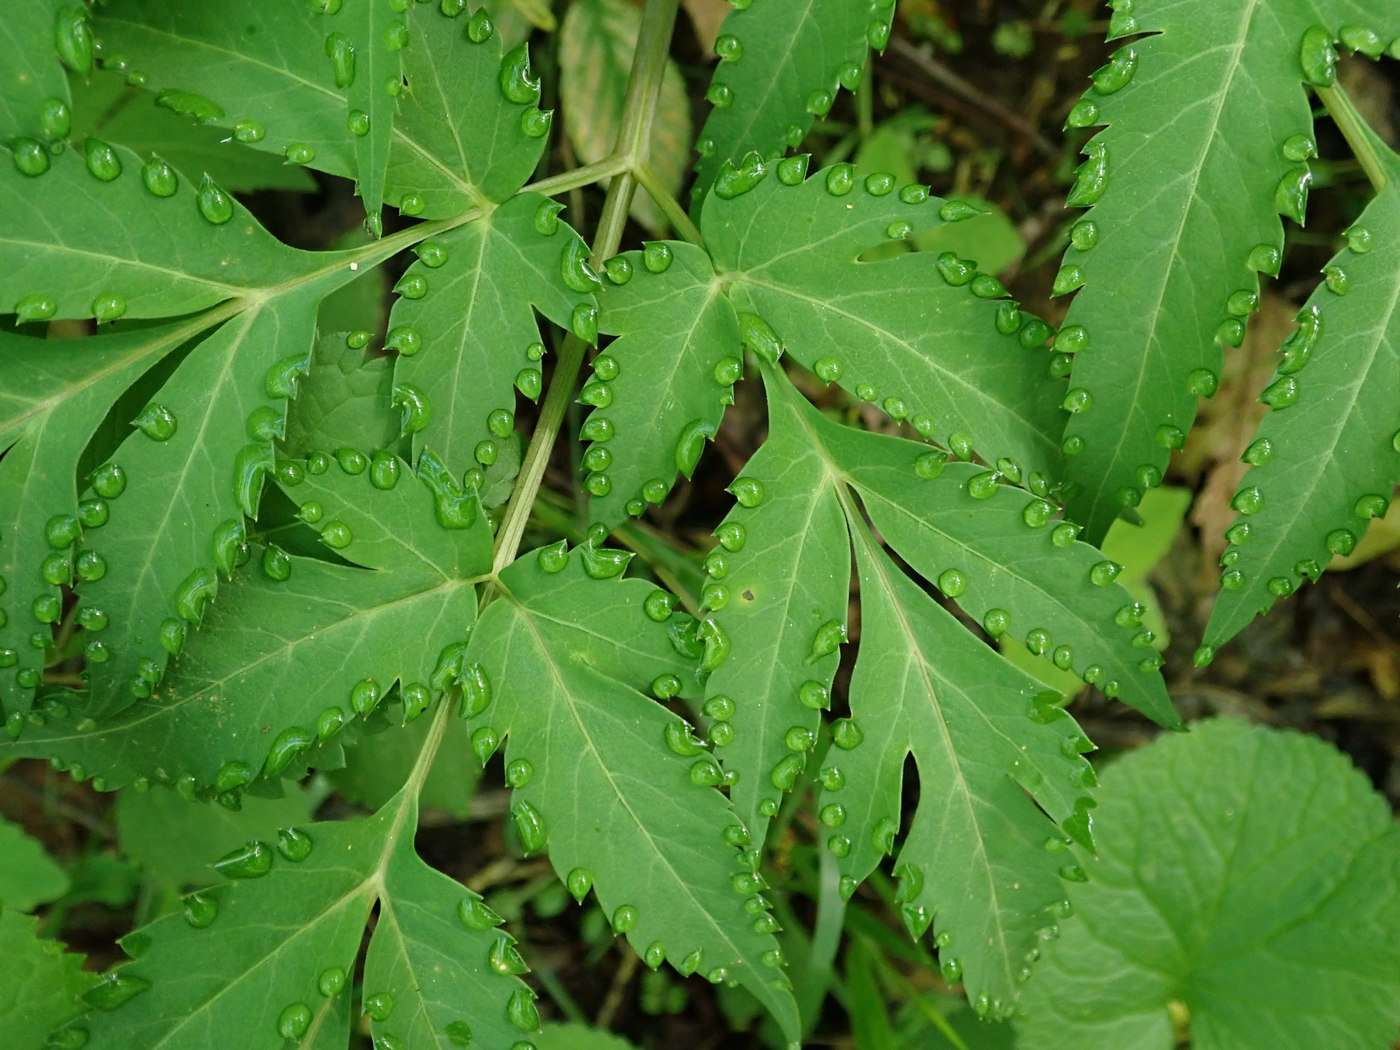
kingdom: Plantae
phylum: Tracheophyta
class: Magnoliopsida
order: Apiales
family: Apiaceae
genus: Angelica
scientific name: Angelica triquinata
